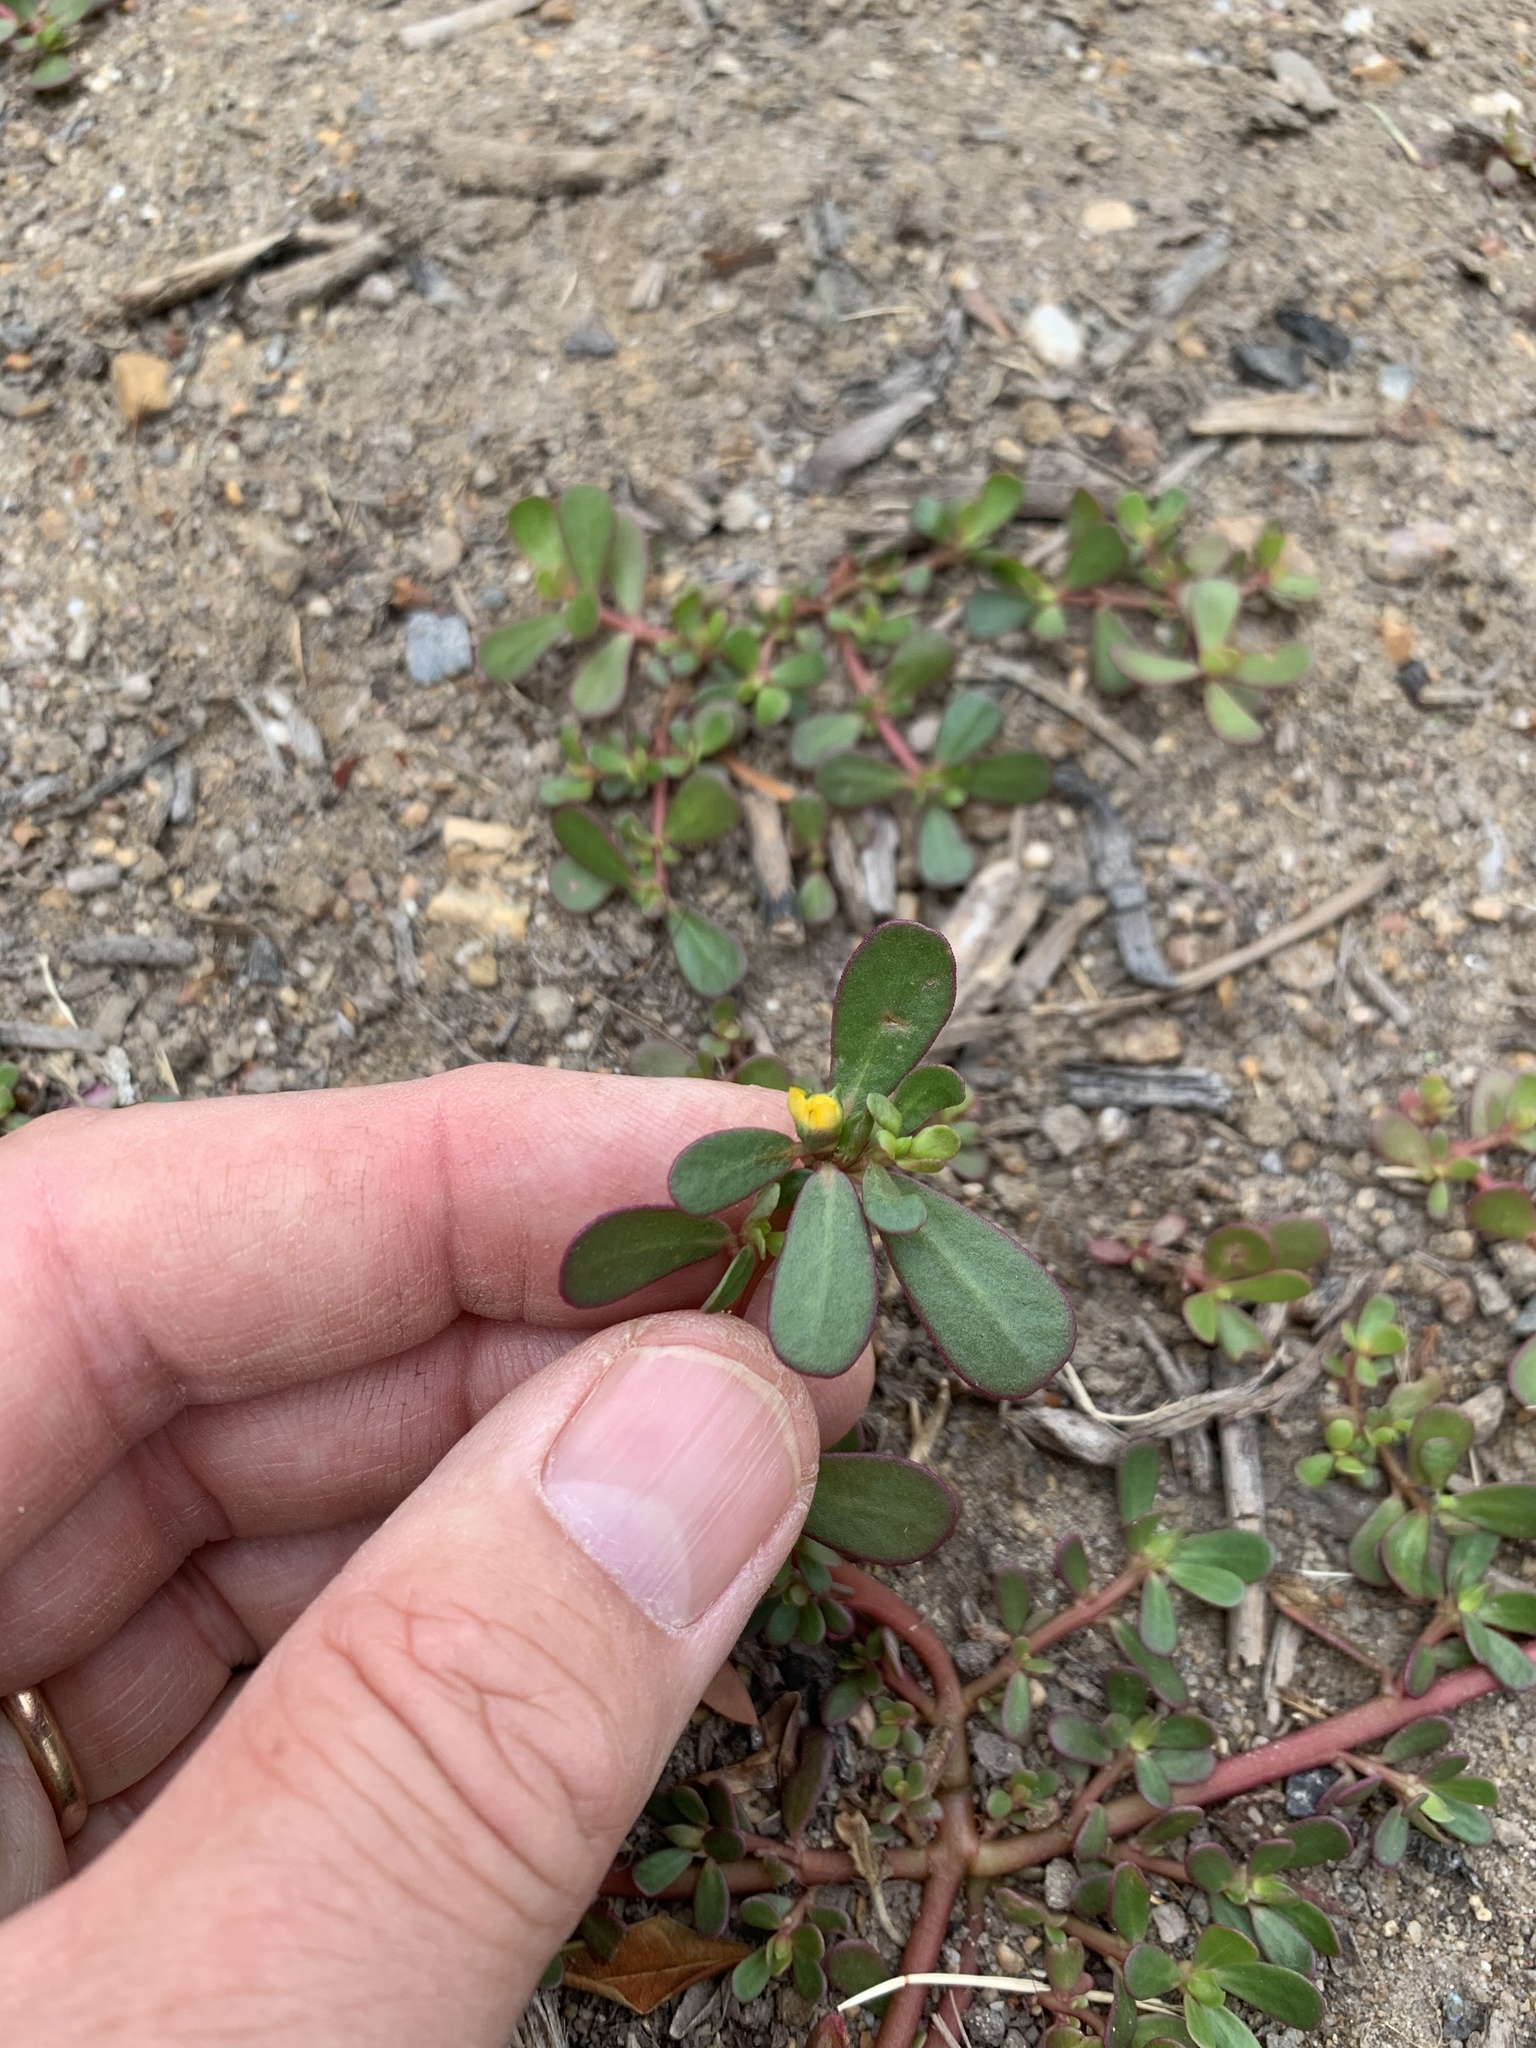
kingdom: Plantae
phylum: Tracheophyta
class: Magnoliopsida
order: Caryophyllales
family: Portulacaceae
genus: Portulaca
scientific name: Portulaca oleracea
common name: Common purslane
